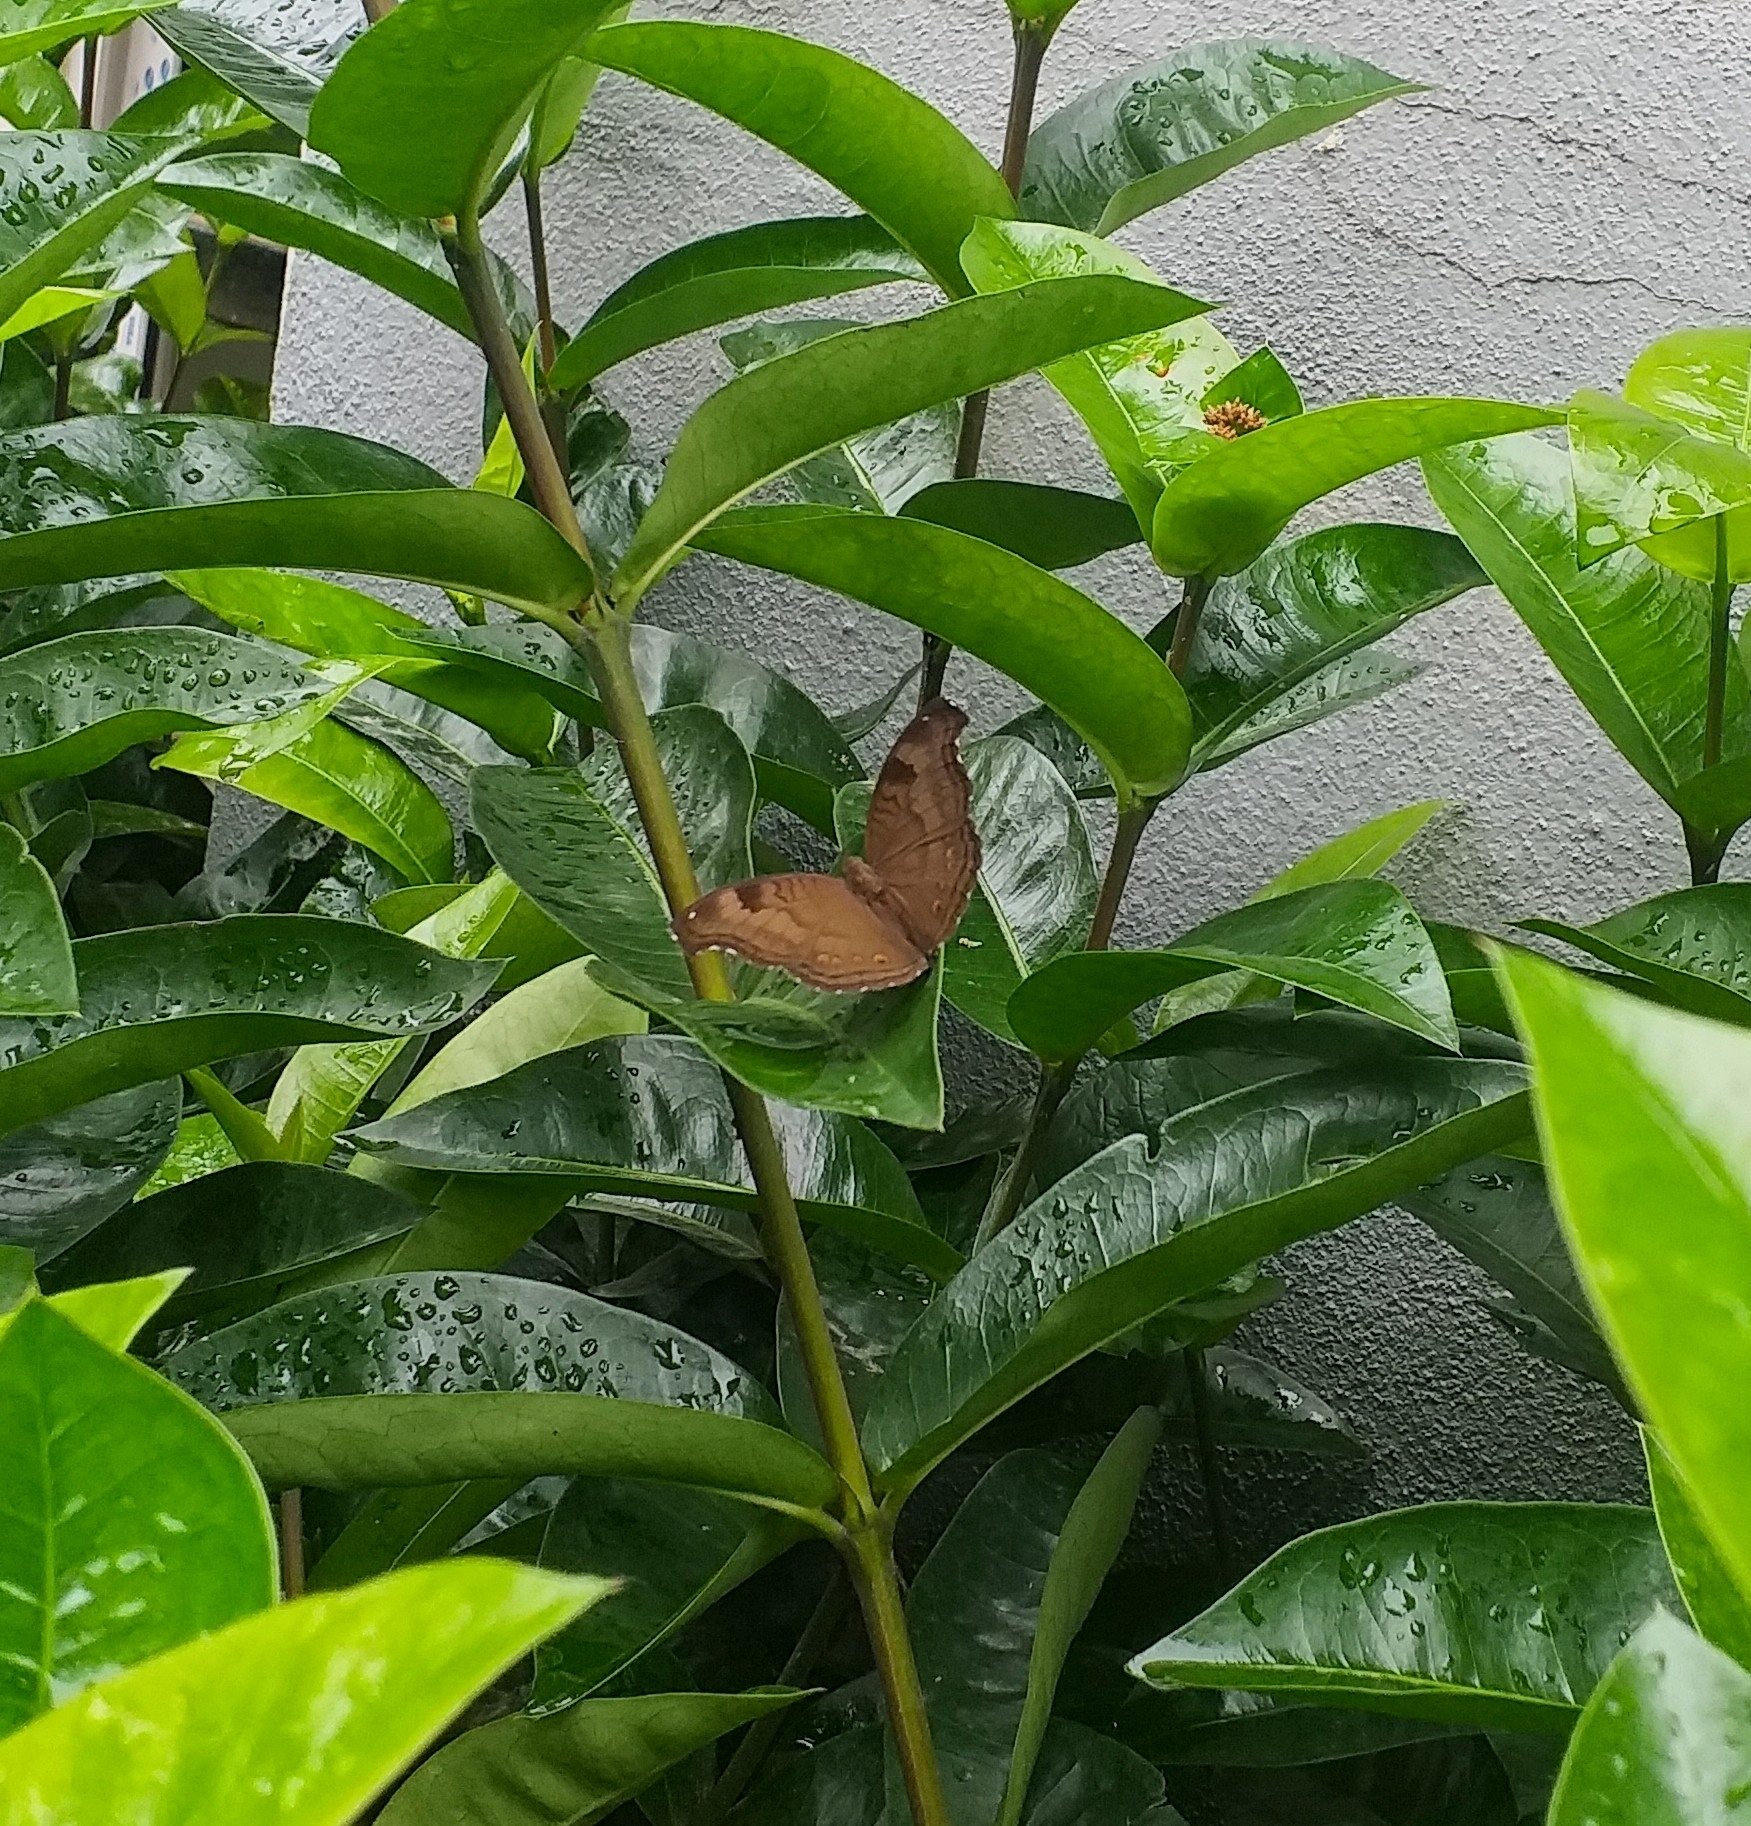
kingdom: Animalia
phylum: Arthropoda
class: Insecta
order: Lepidoptera
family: Nymphalidae
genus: Junonia
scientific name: Junonia iphita
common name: Chocolate pansy
